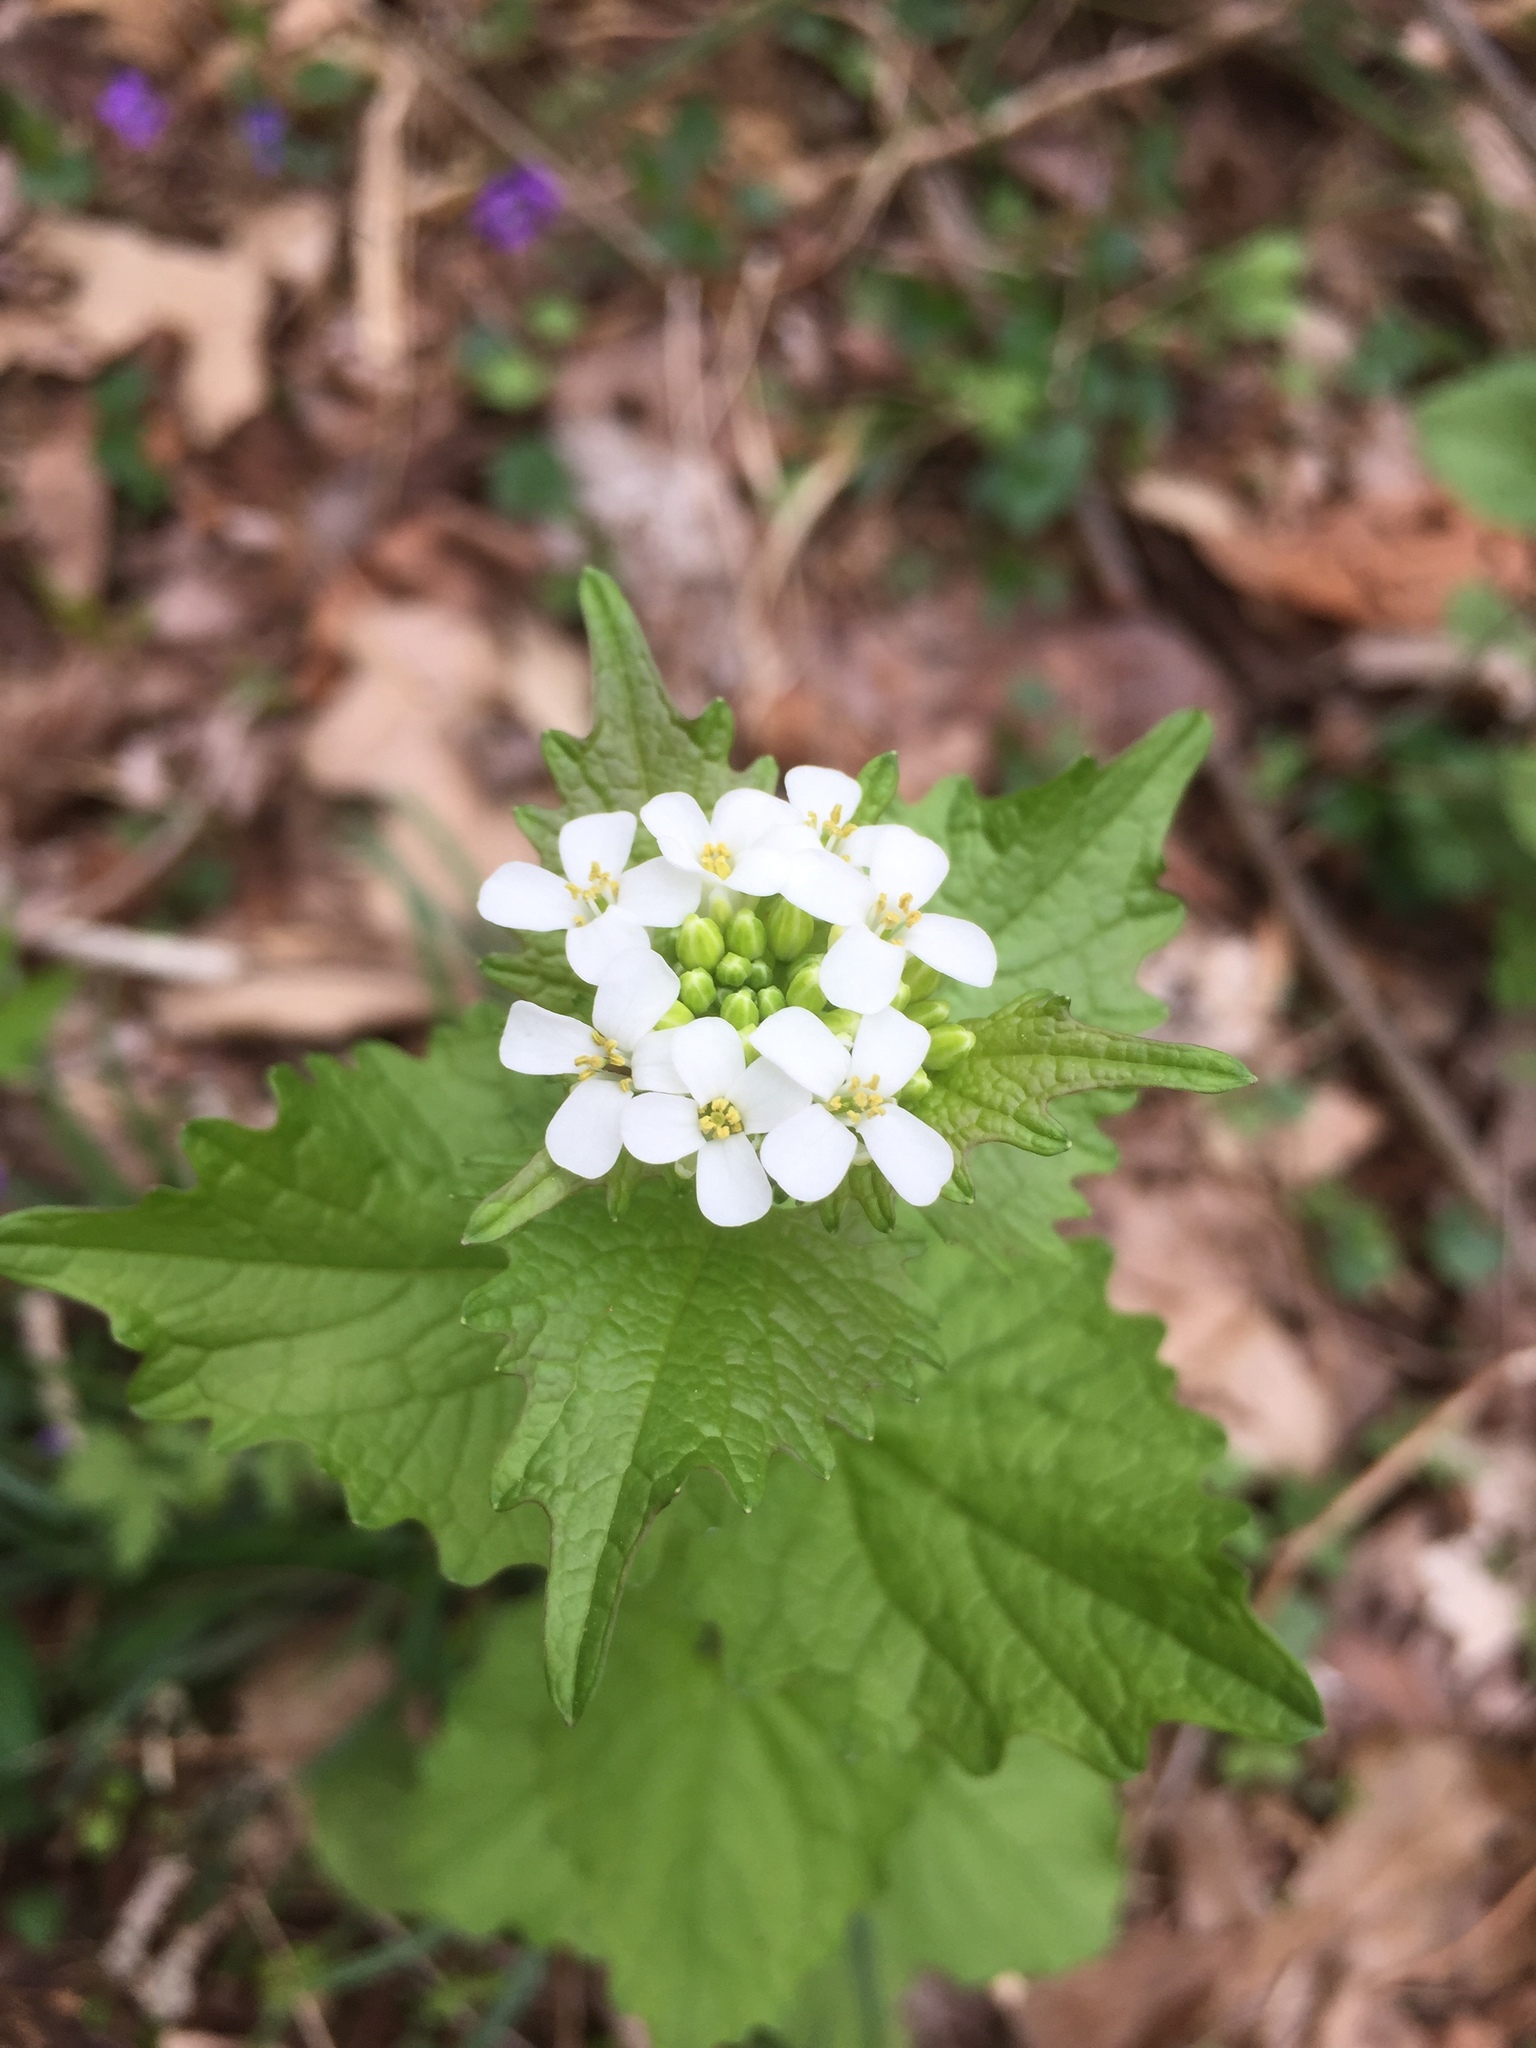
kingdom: Plantae
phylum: Tracheophyta
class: Magnoliopsida
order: Brassicales
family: Brassicaceae
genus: Alliaria
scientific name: Alliaria petiolata
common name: Garlic mustard
